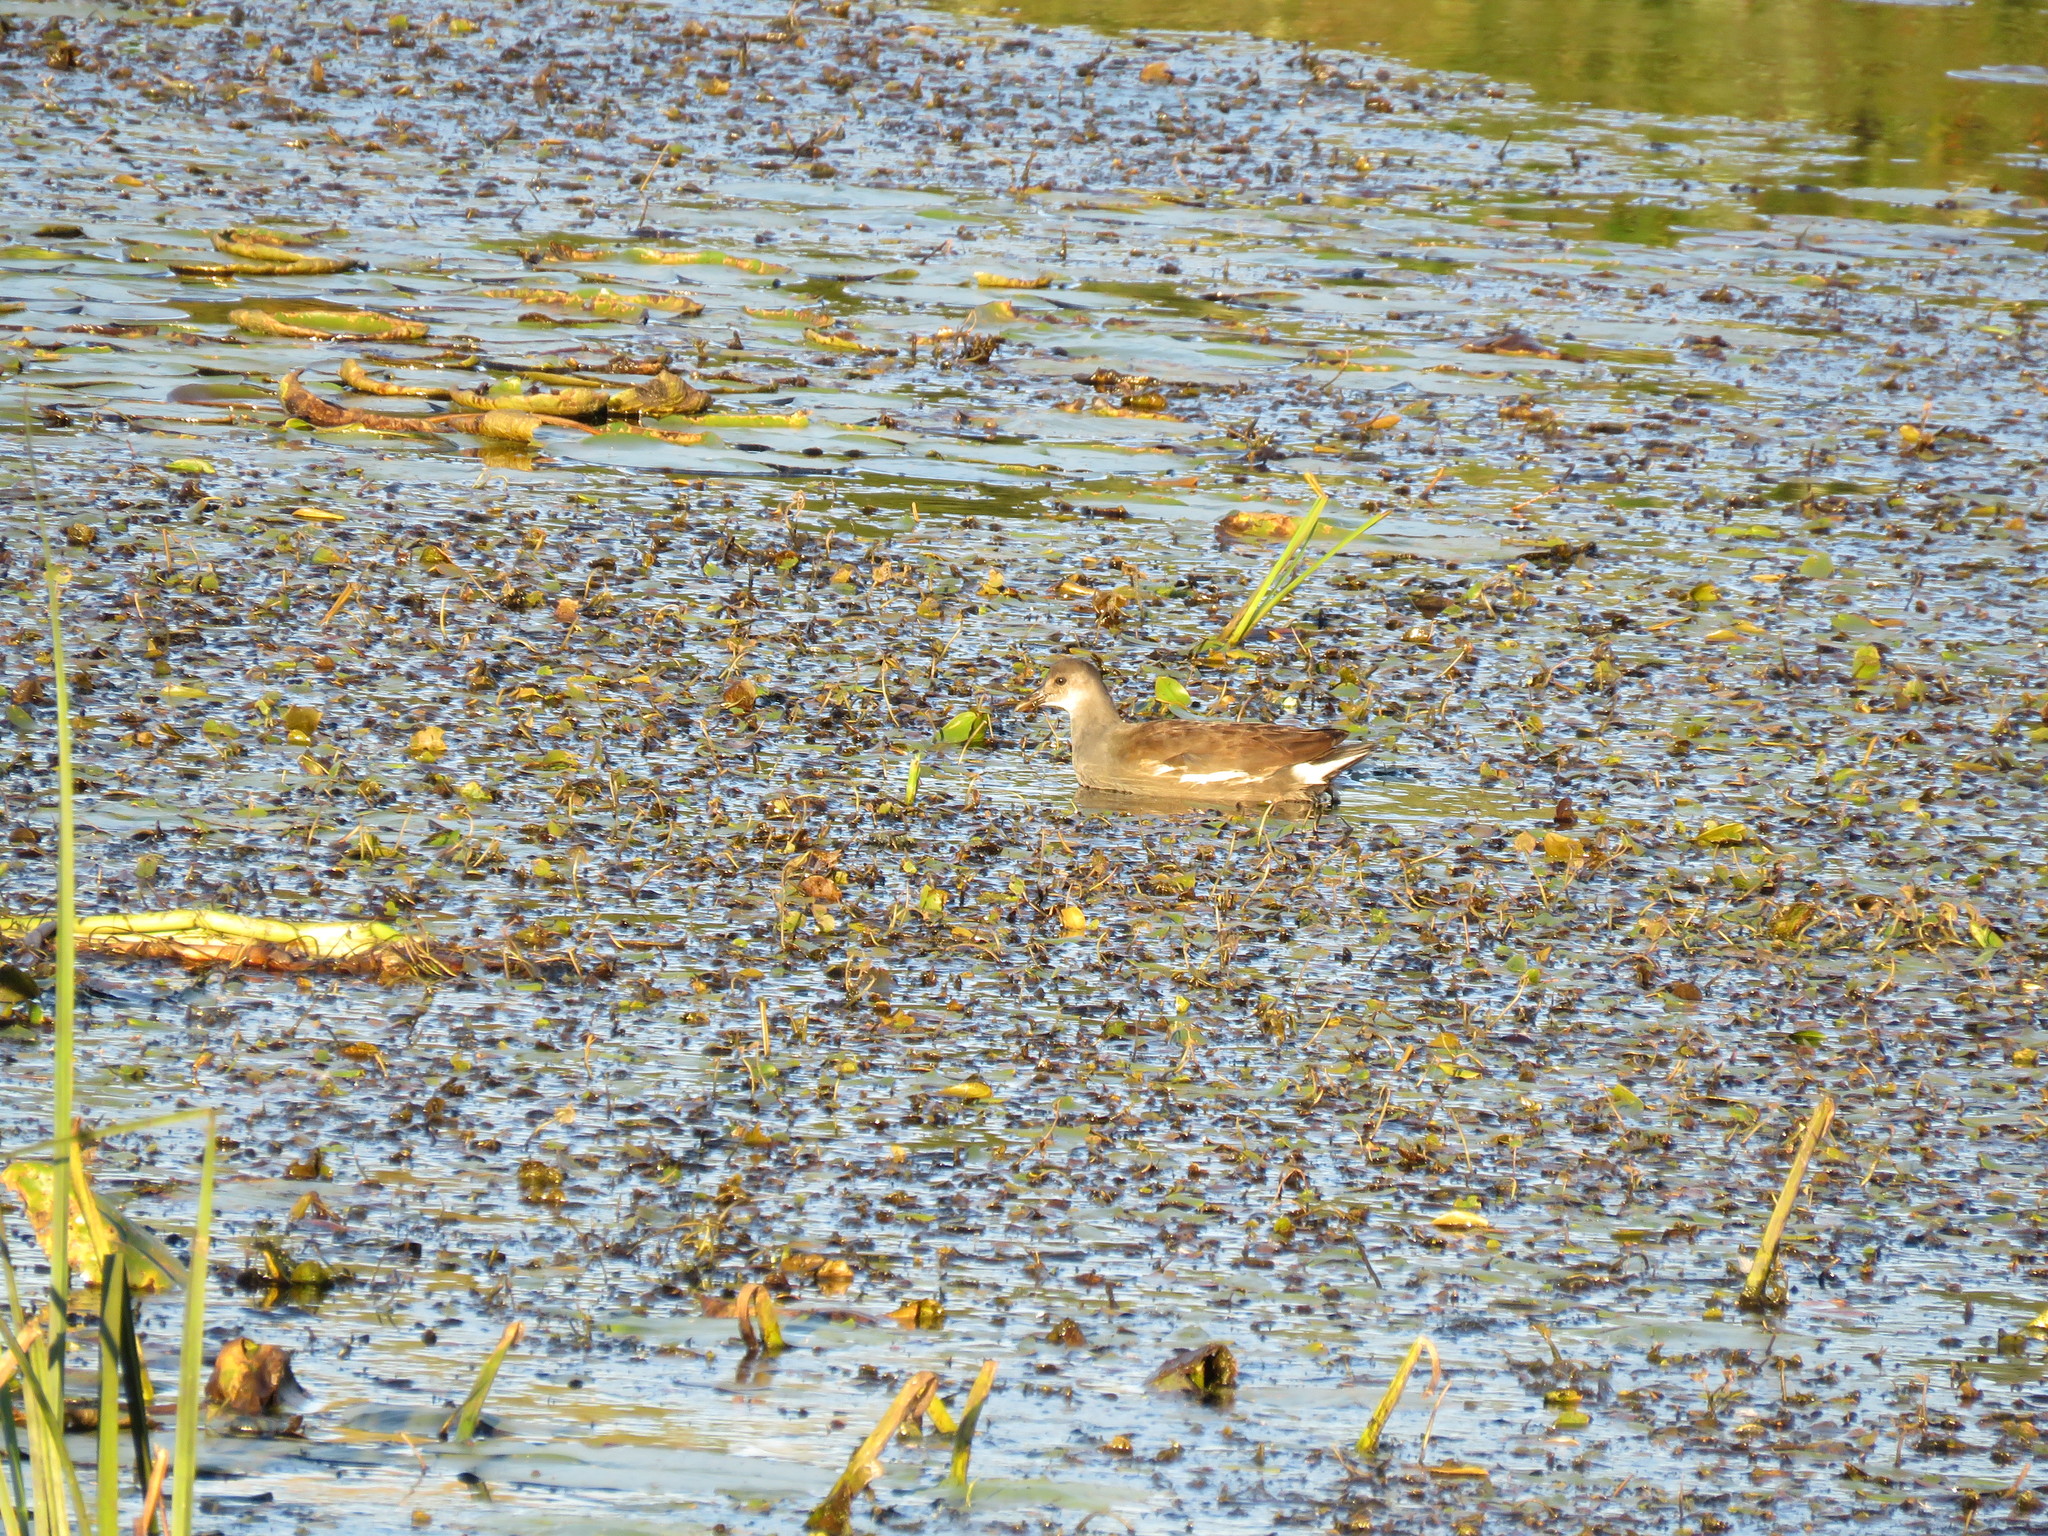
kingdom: Animalia
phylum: Chordata
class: Aves
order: Gruiformes
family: Rallidae
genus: Gallinula
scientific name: Gallinula chloropus
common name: Common moorhen
